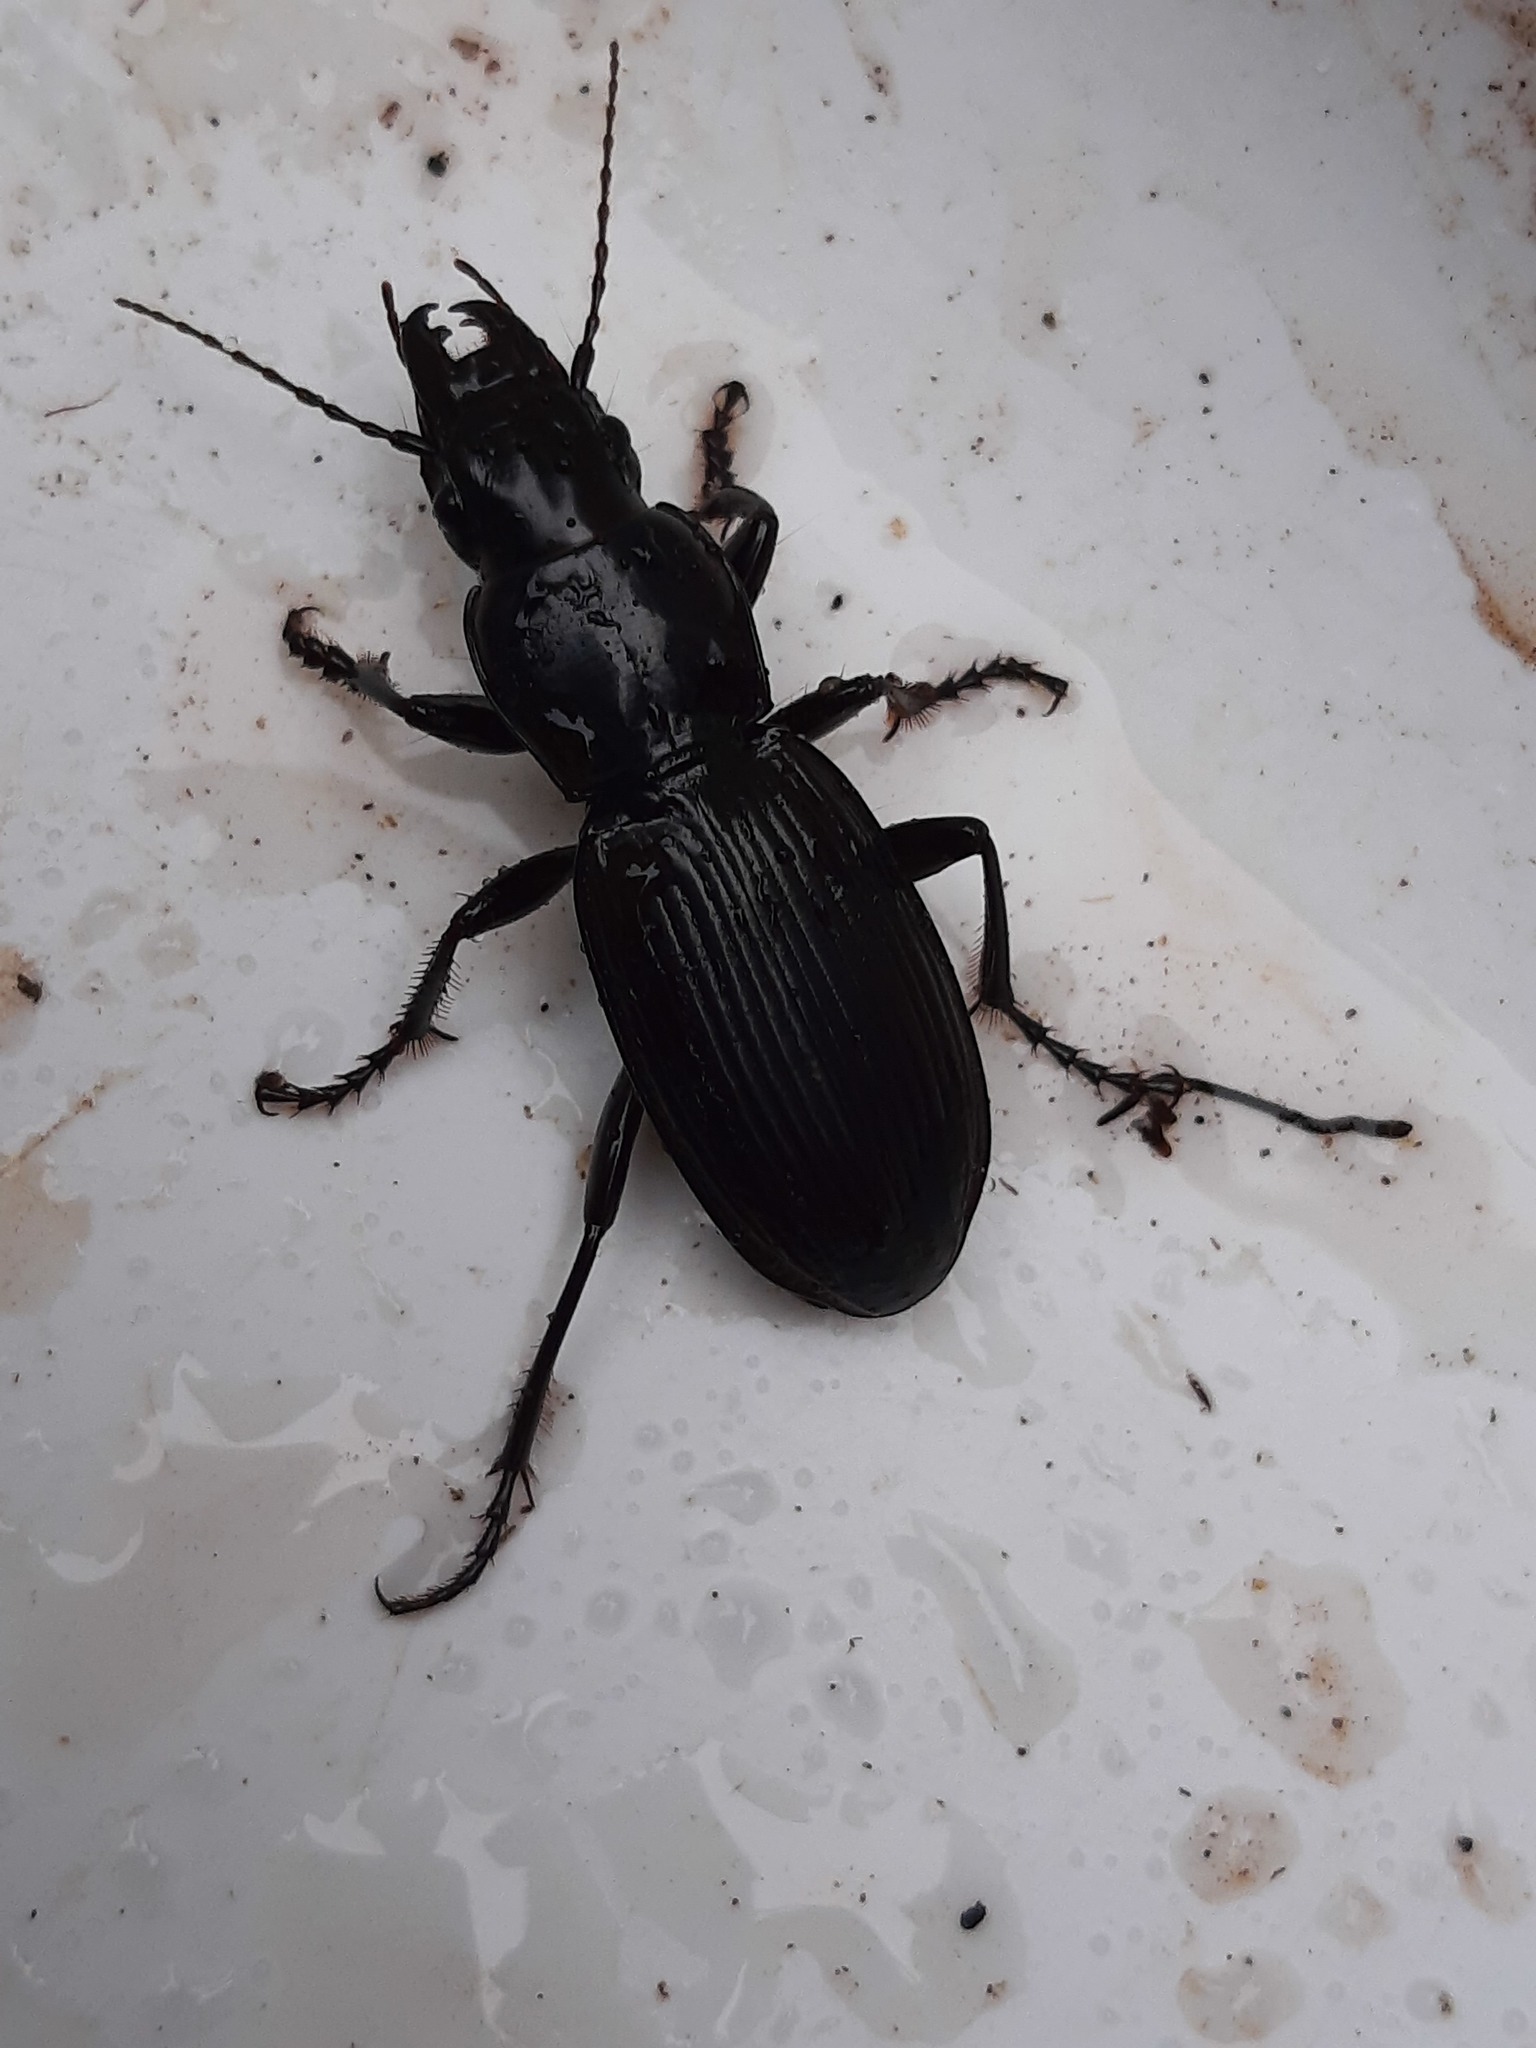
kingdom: Animalia
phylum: Arthropoda
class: Insecta
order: Coleoptera
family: Carabidae
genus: Plocamostethus
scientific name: Plocamostethus planiusculus
